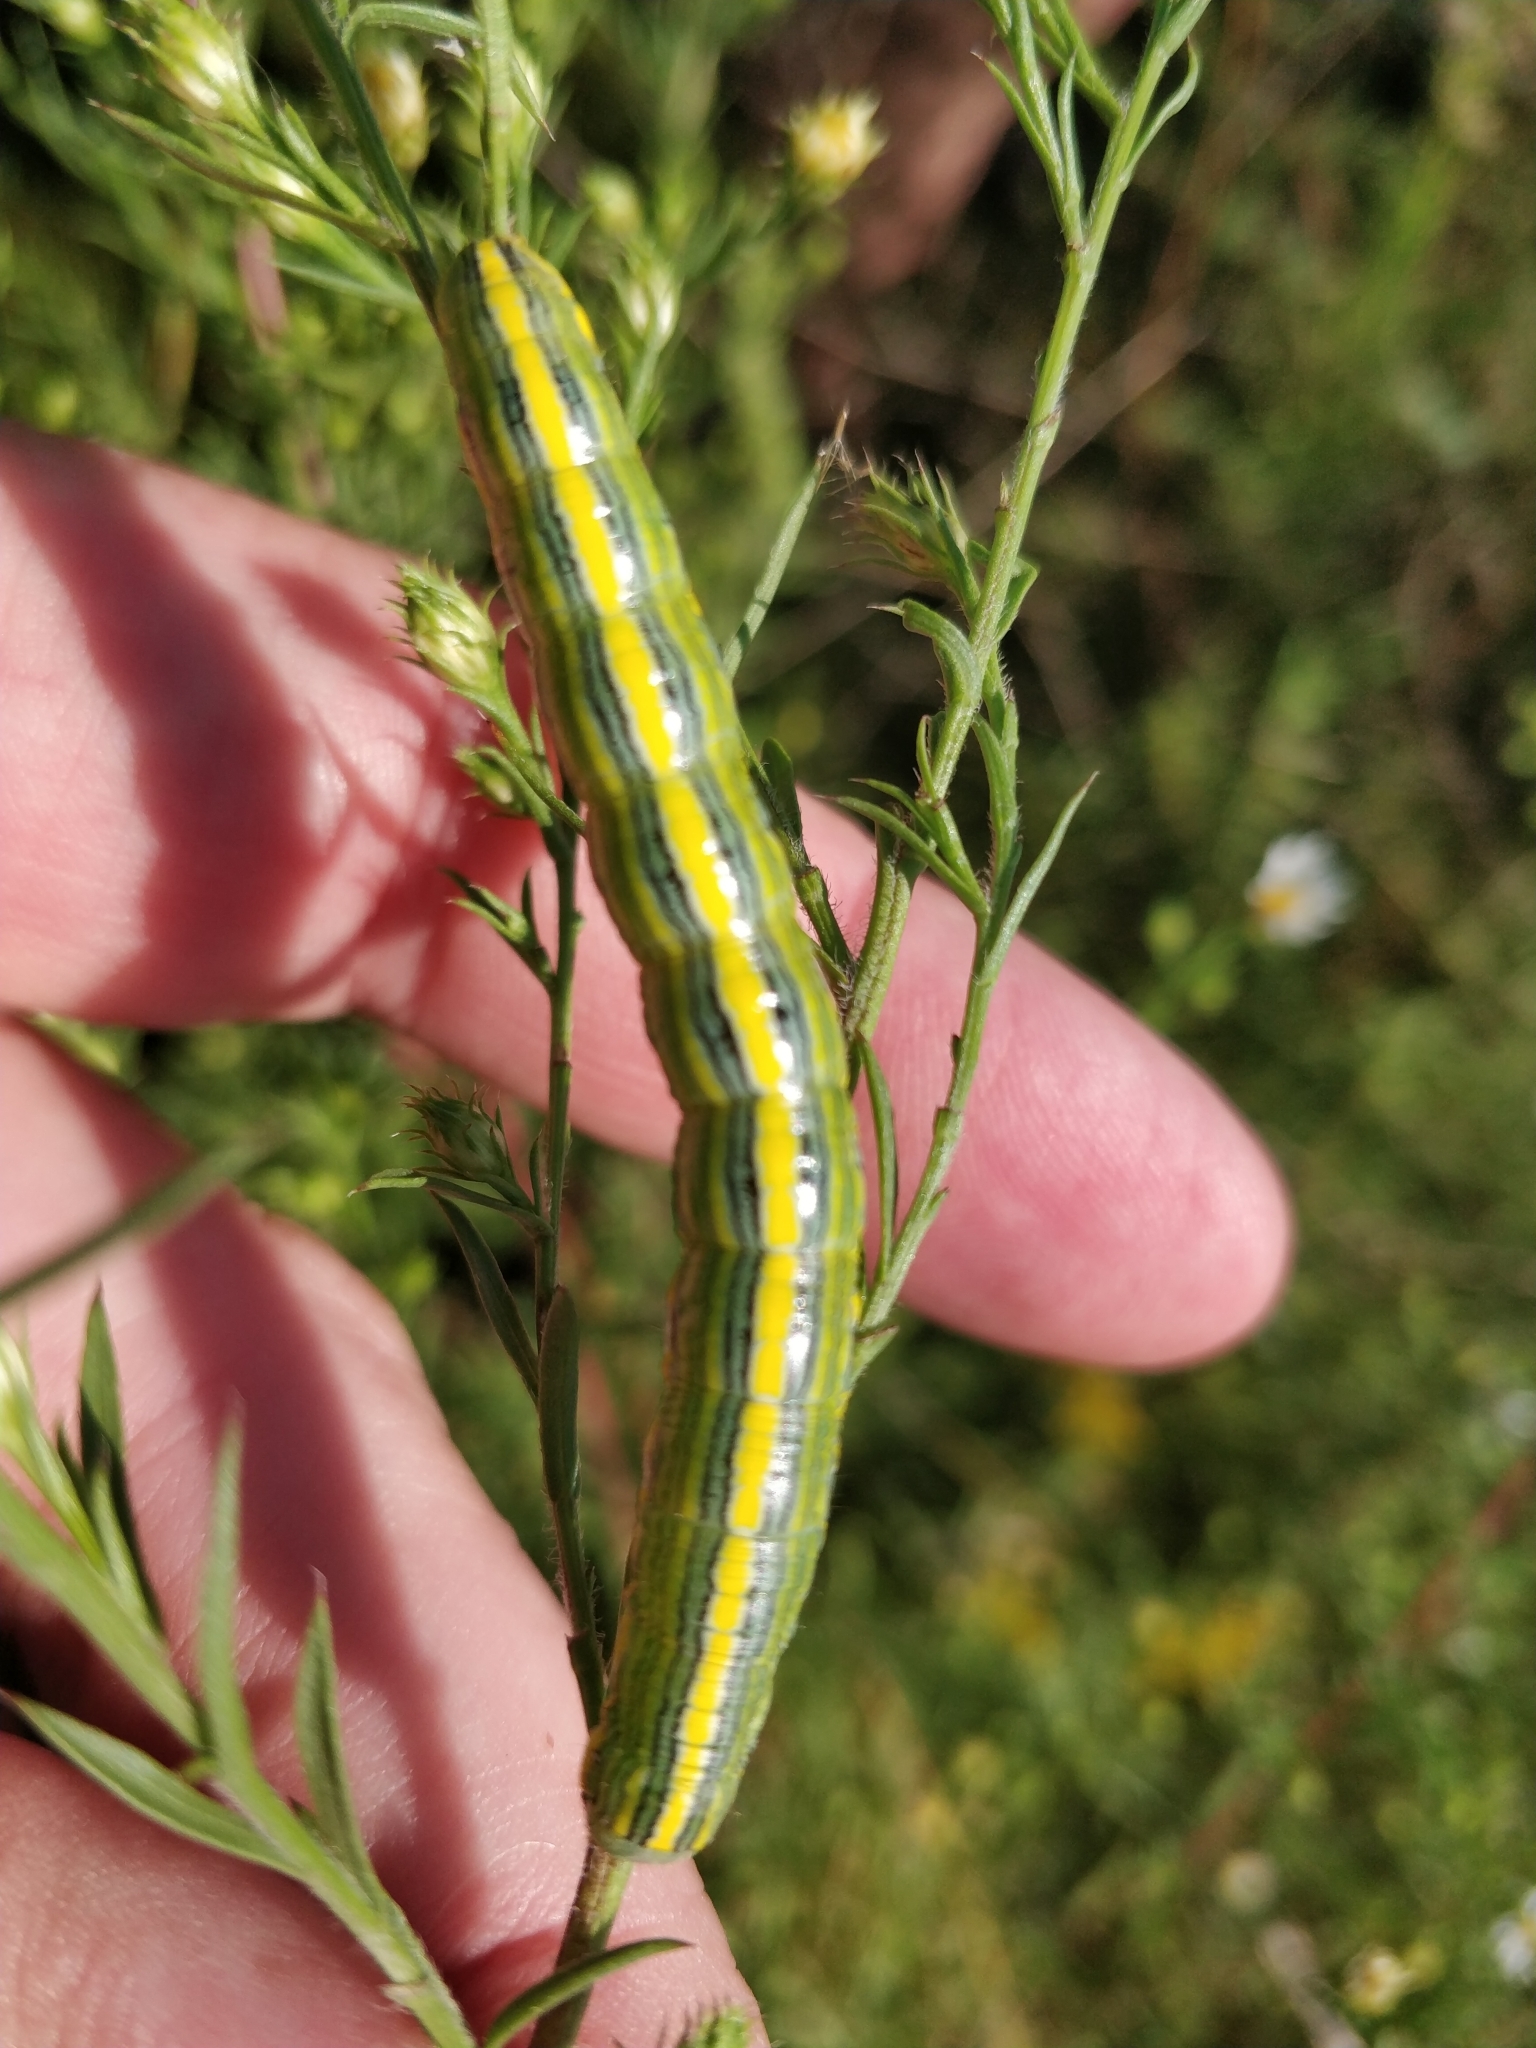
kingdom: Animalia
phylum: Arthropoda
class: Insecta
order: Lepidoptera
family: Noctuidae
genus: Cucullia
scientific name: Cucullia asteroides
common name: Asteroid moth
